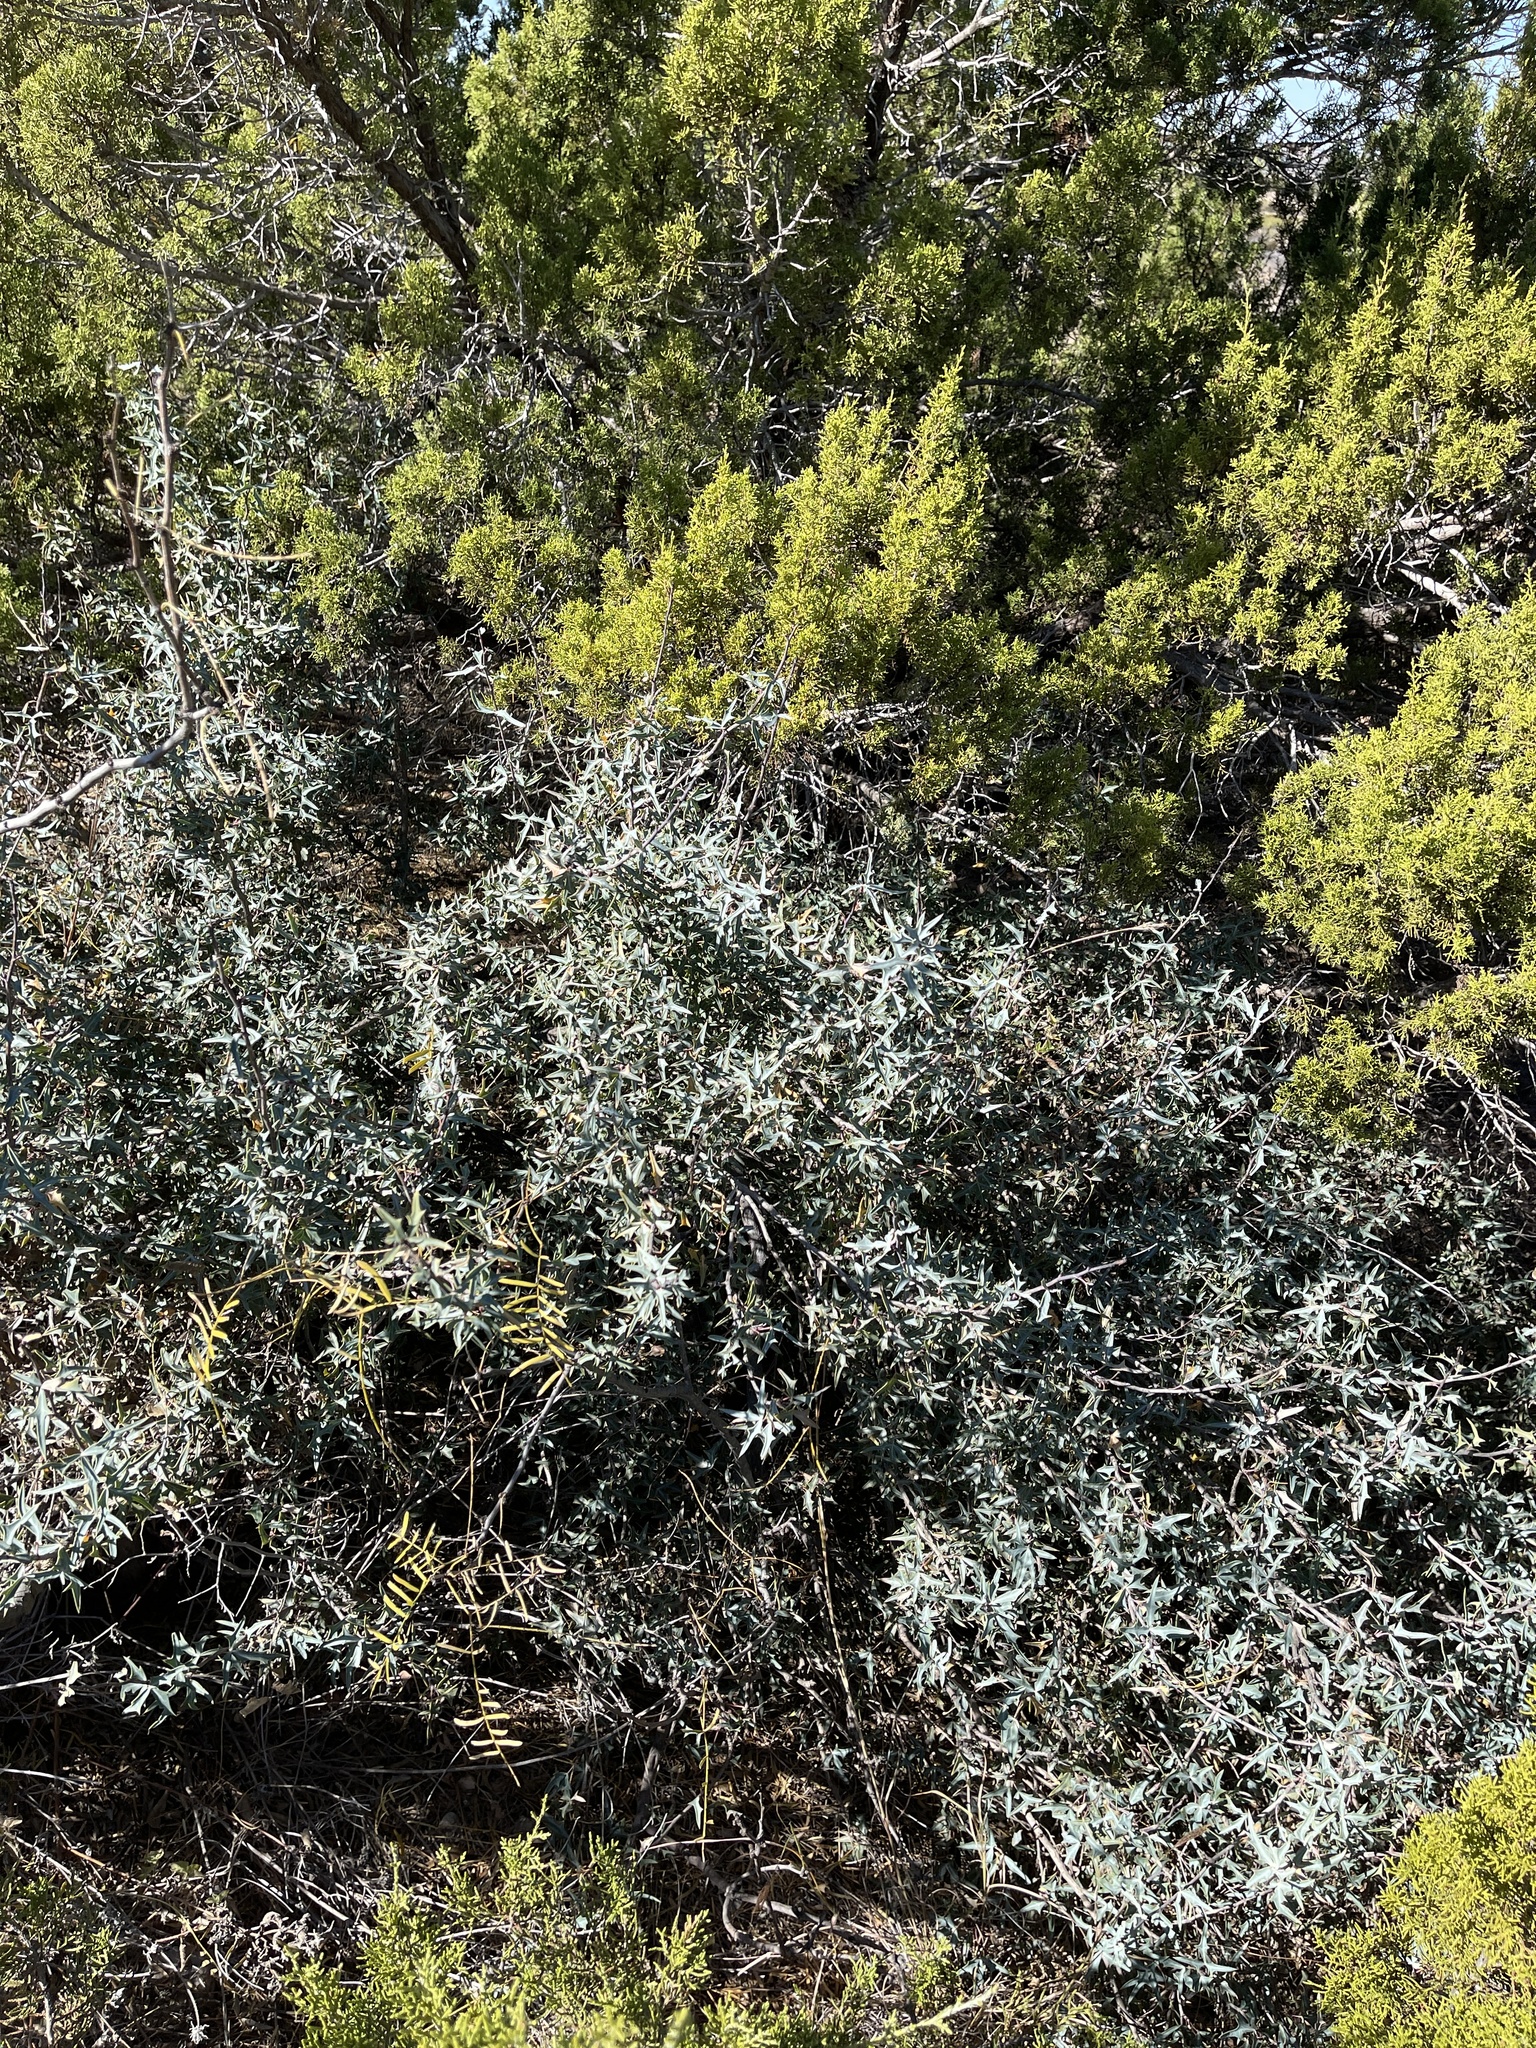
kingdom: Plantae
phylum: Tracheophyta
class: Magnoliopsida
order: Ranunculales
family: Berberidaceae
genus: Alloberberis
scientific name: Alloberberis trifoliolata
